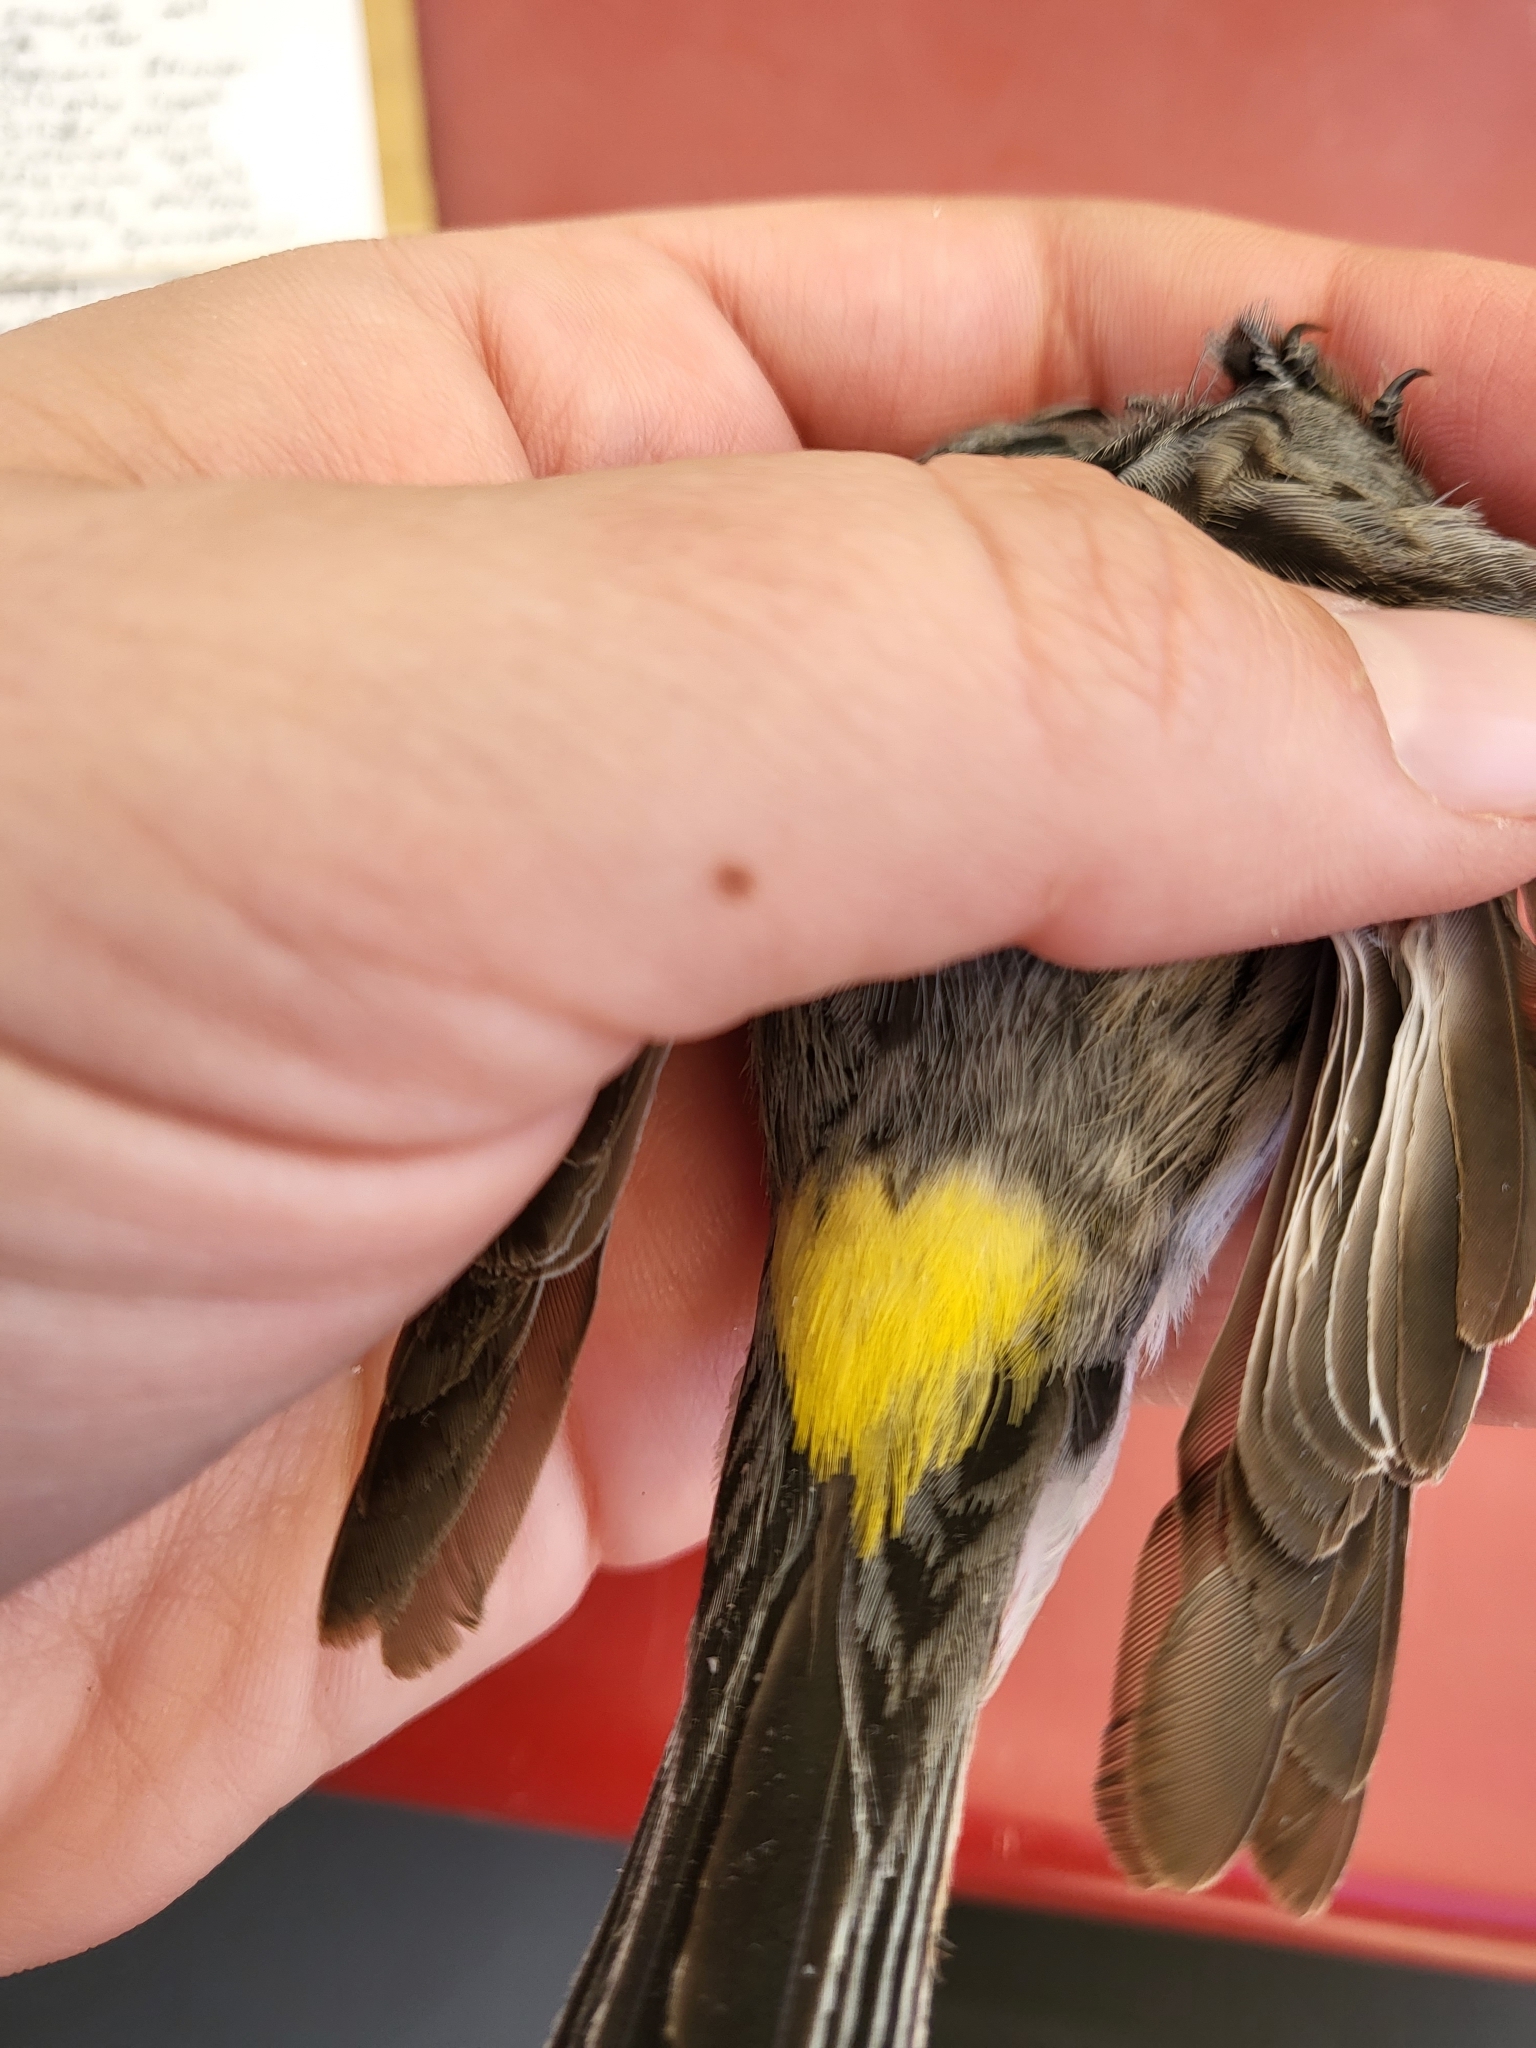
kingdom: Animalia
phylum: Chordata
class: Aves
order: Passeriformes
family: Parulidae
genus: Setophaga
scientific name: Setophaga coronata
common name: Myrtle warbler
